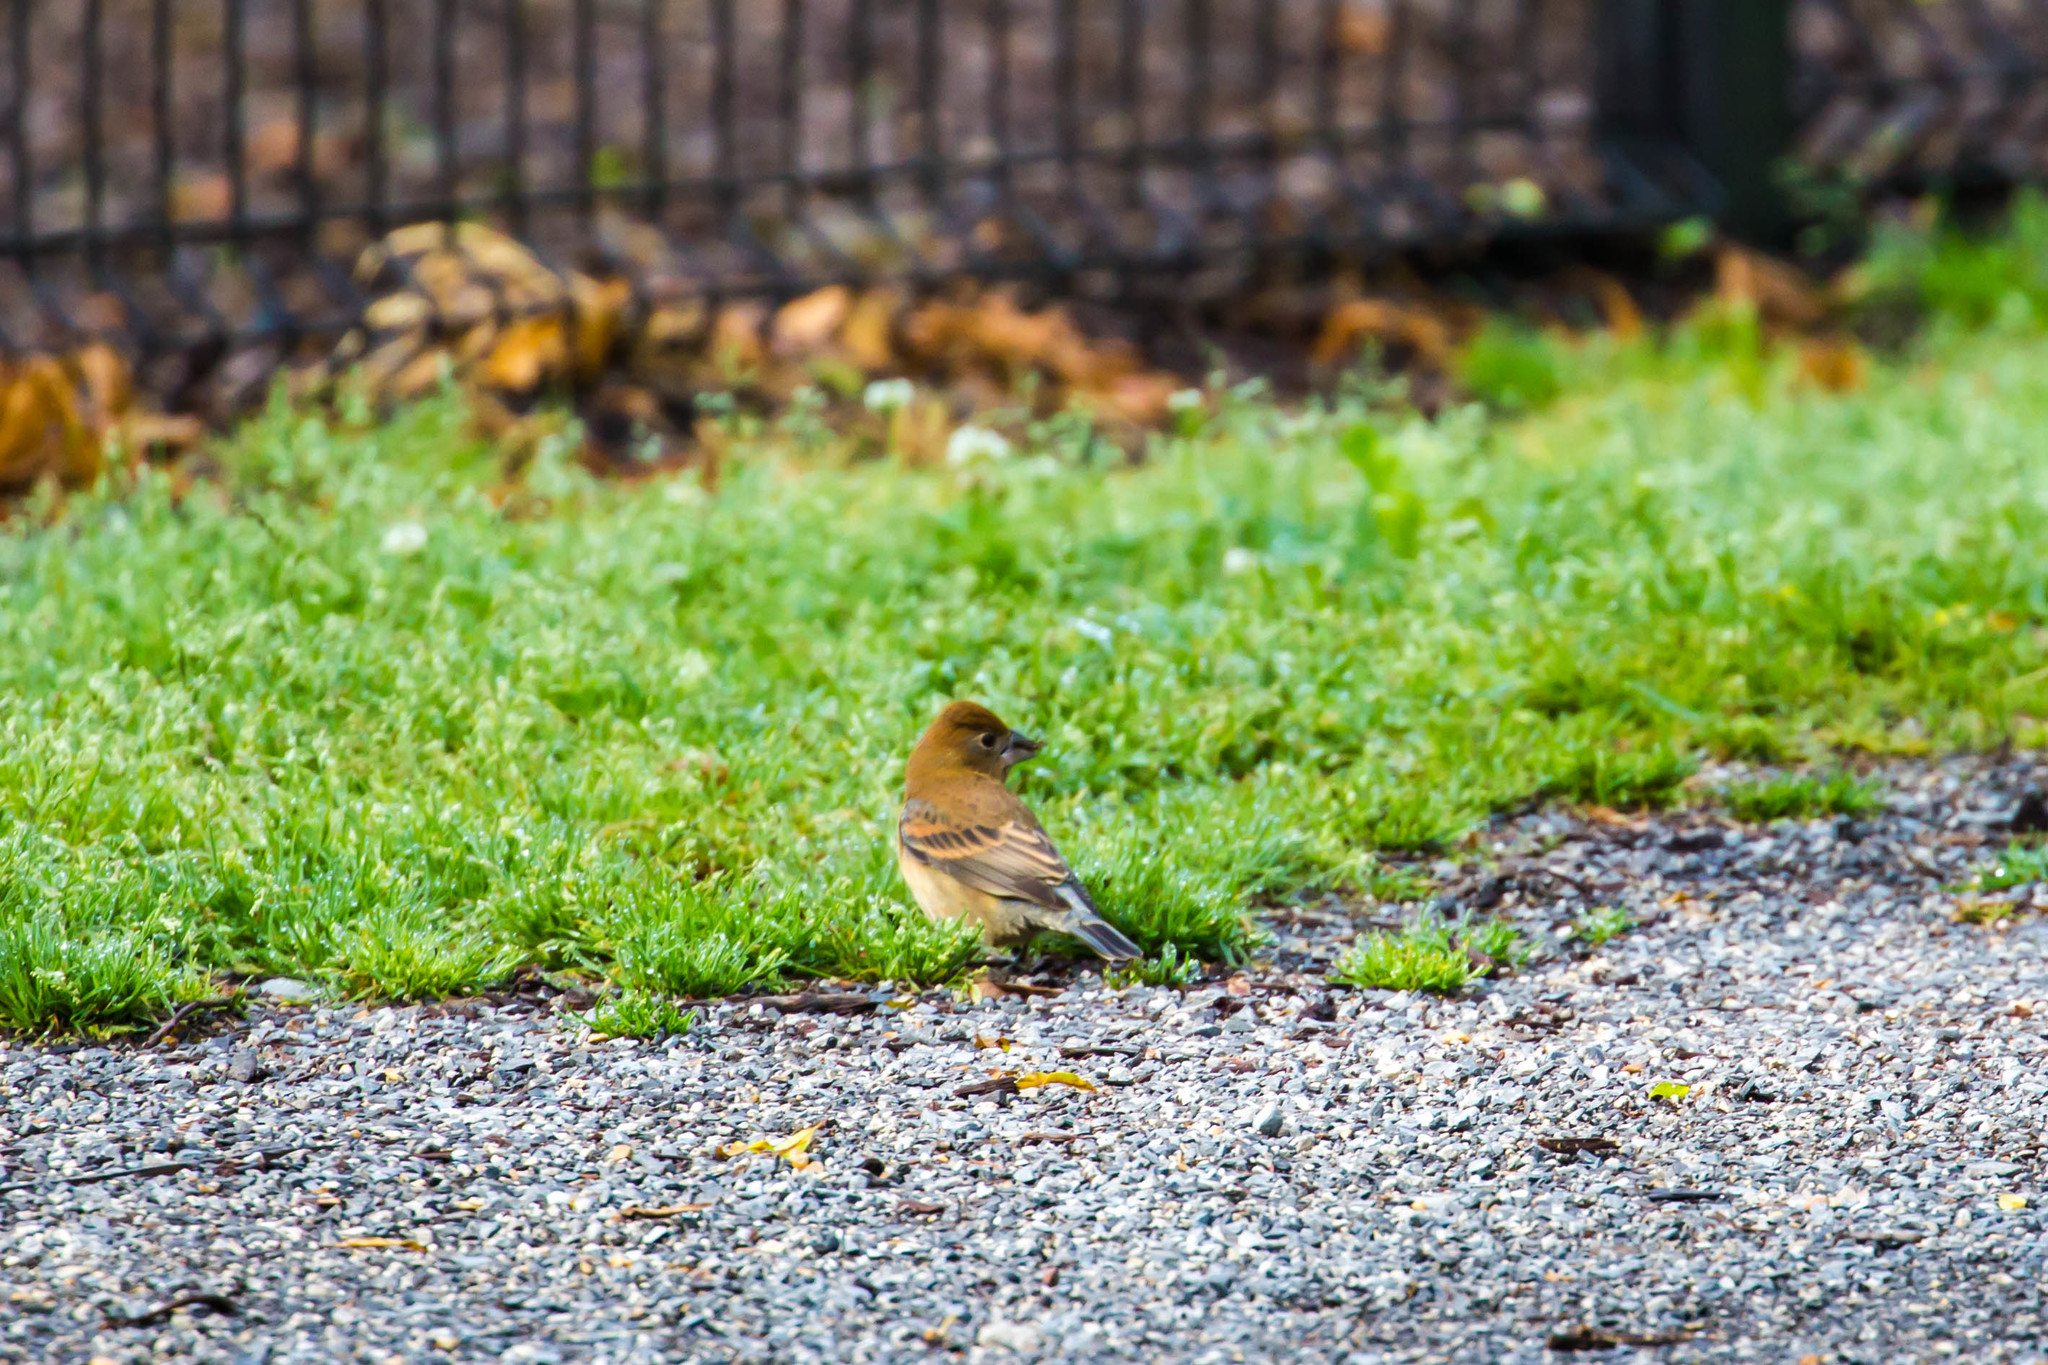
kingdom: Animalia
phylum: Chordata
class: Aves
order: Passeriformes
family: Cardinalidae
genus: Passerina
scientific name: Passerina caerulea
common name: Blue grosbeak
